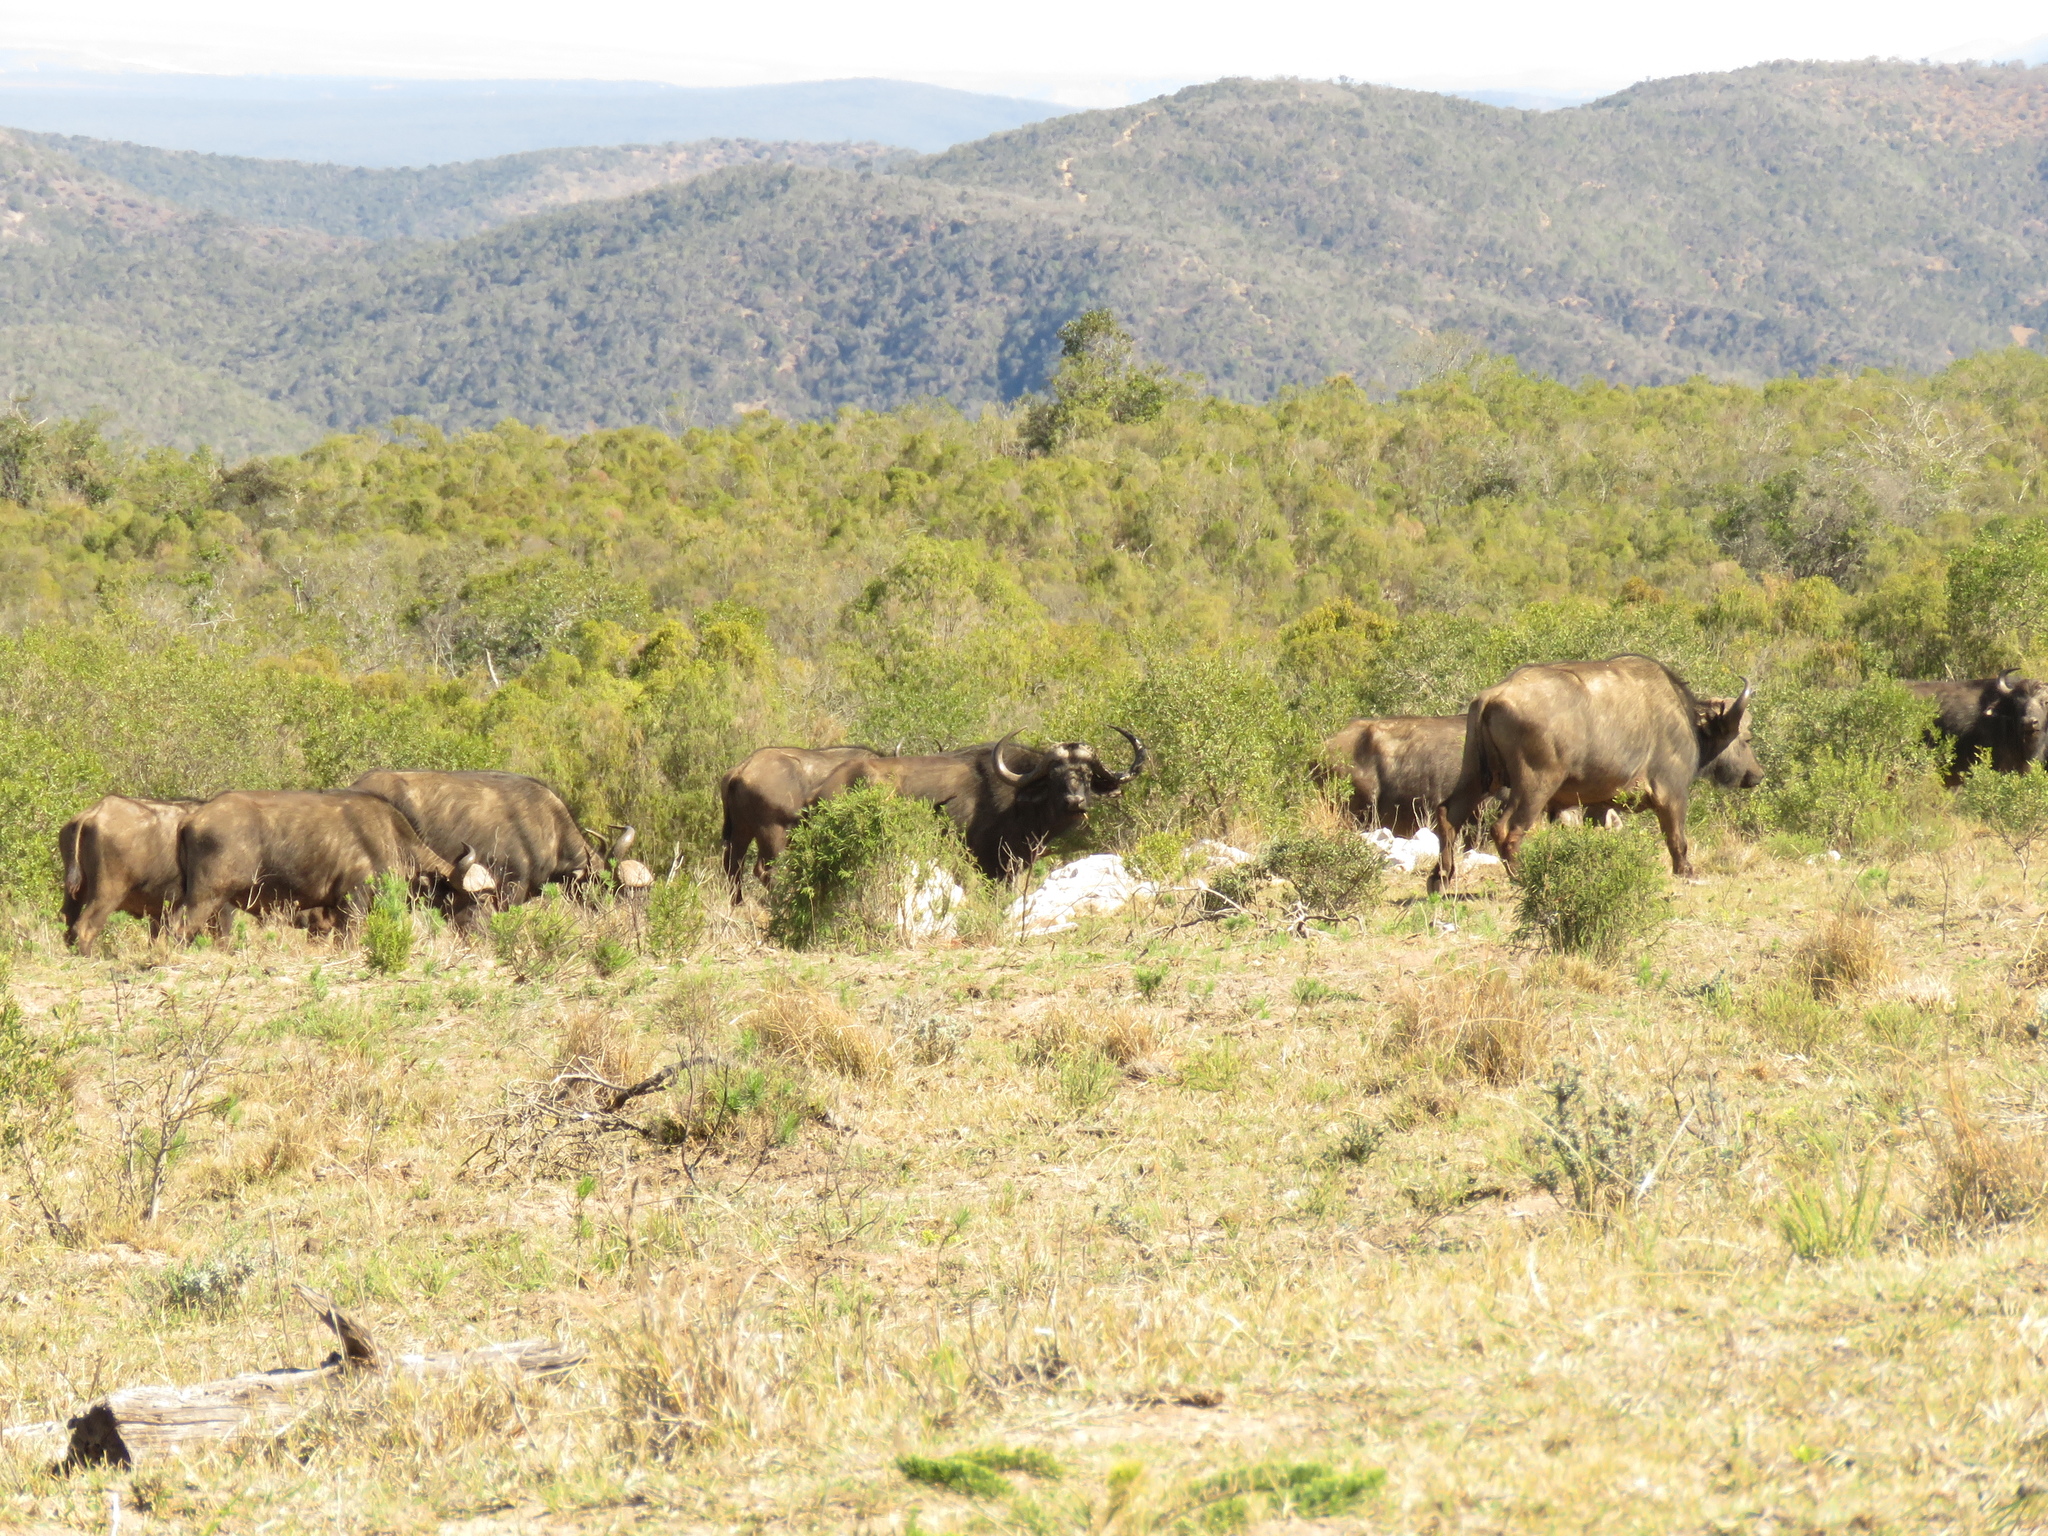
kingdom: Animalia
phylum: Chordata
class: Mammalia
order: Artiodactyla
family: Bovidae
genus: Syncerus
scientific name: Syncerus caffer
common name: African buffalo
